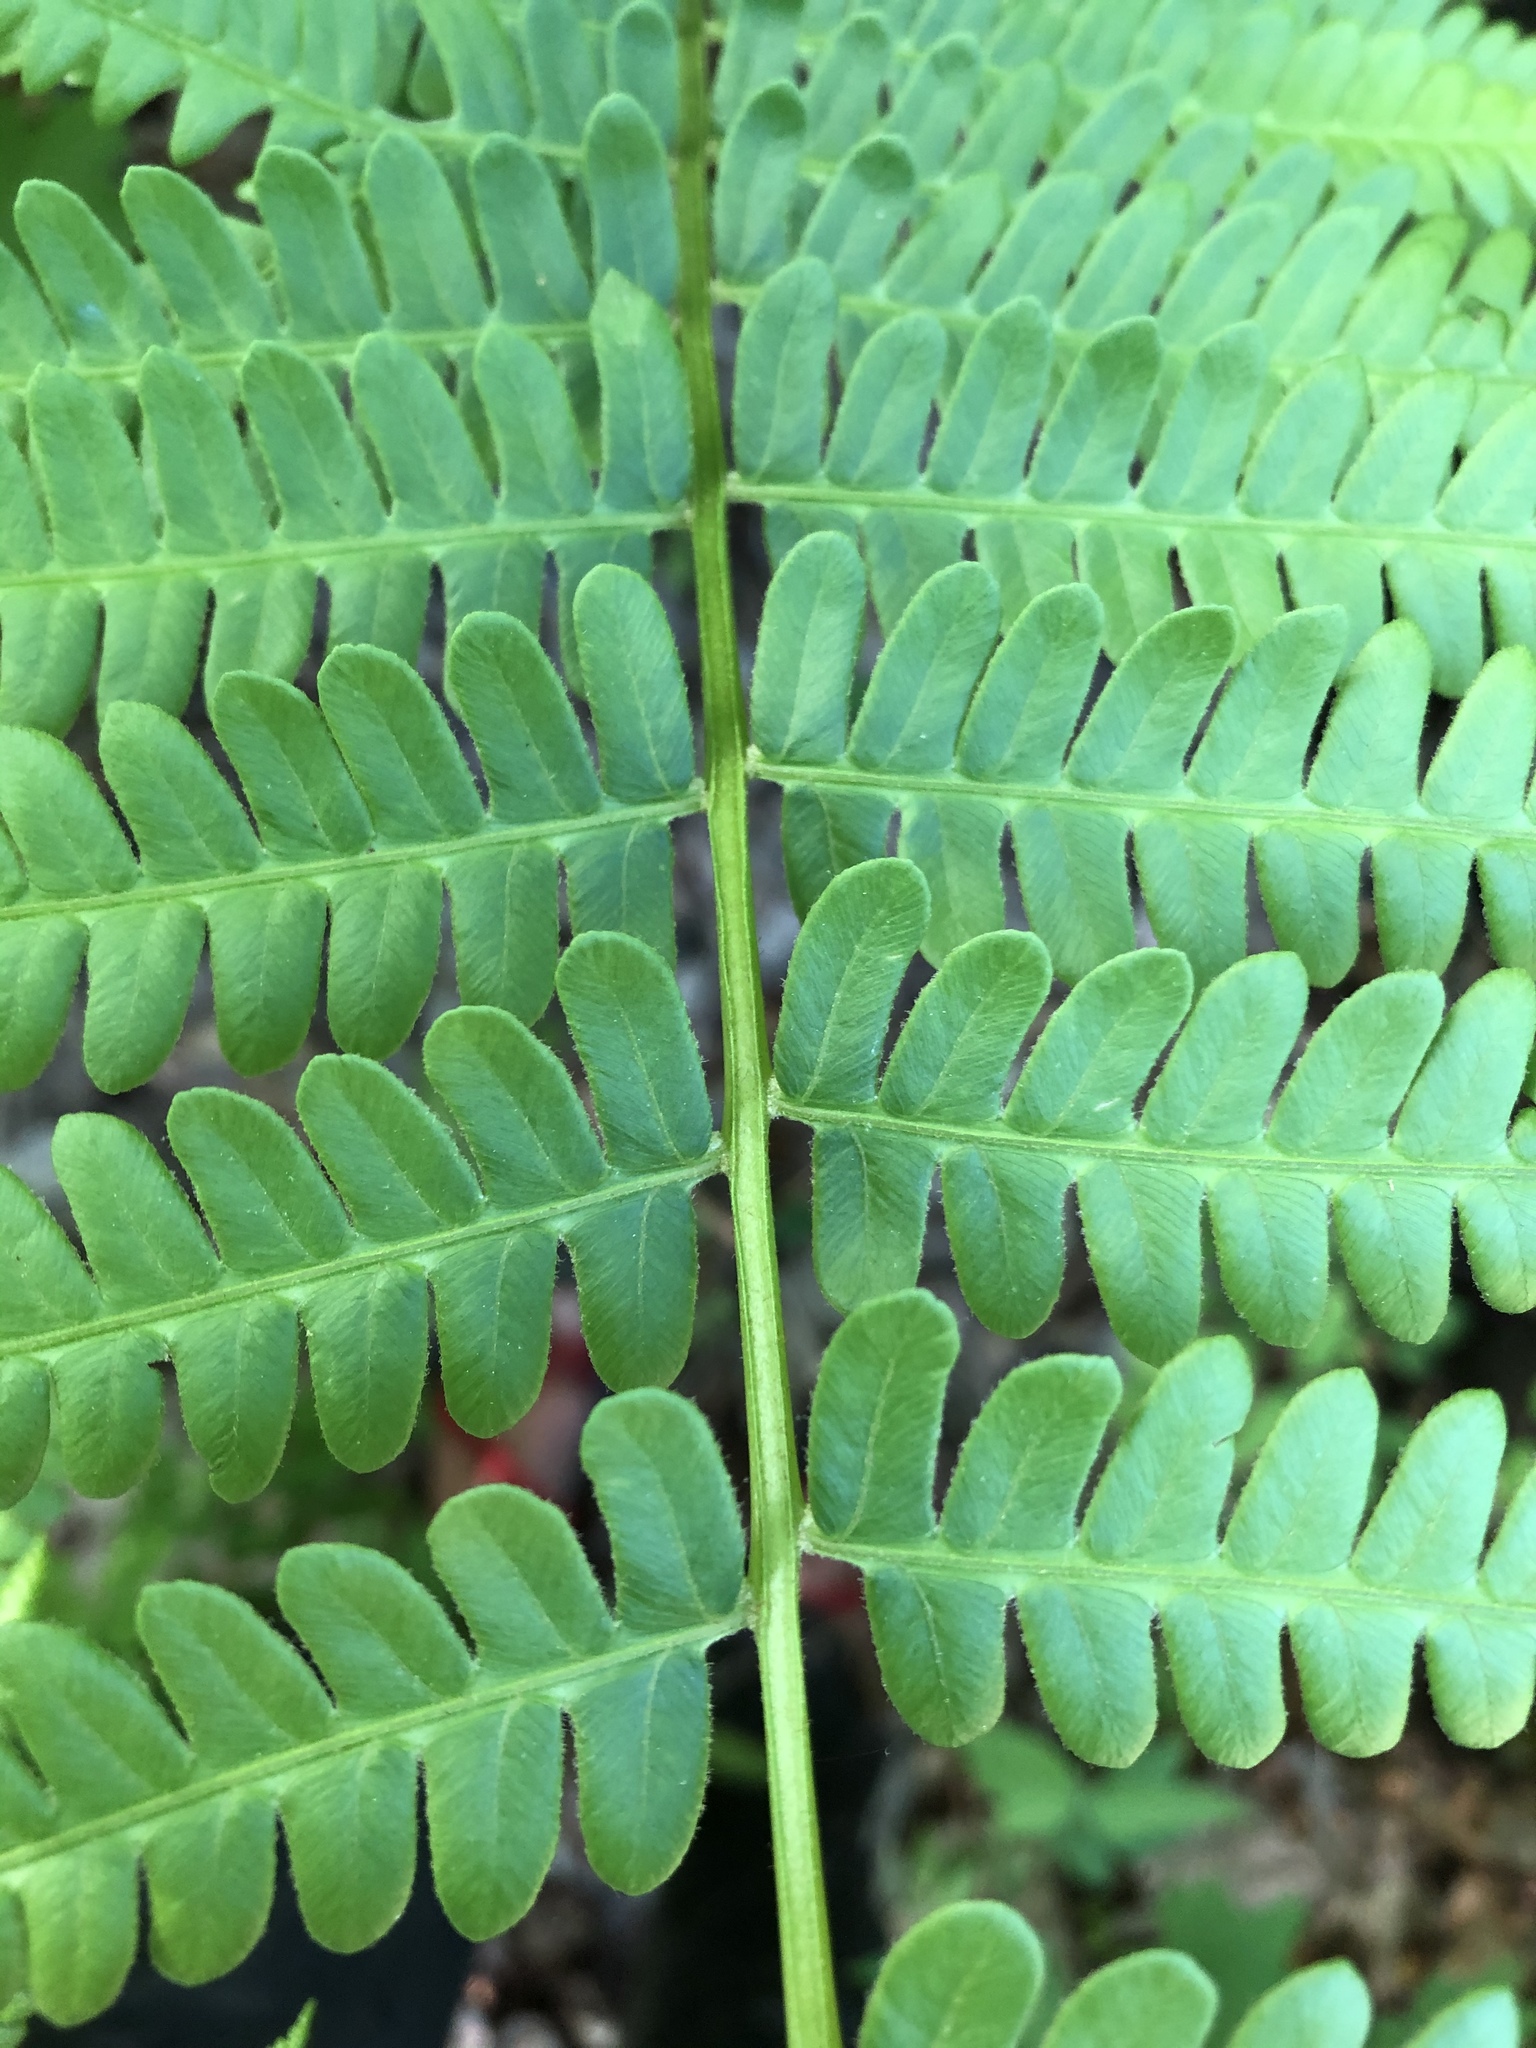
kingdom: Plantae
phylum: Tracheophyta
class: Polypodiopsida
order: Osmundales
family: Osmundaceae
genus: Osmundastrum
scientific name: Osmundastrum cinnamomeum
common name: Cinnamon fern
